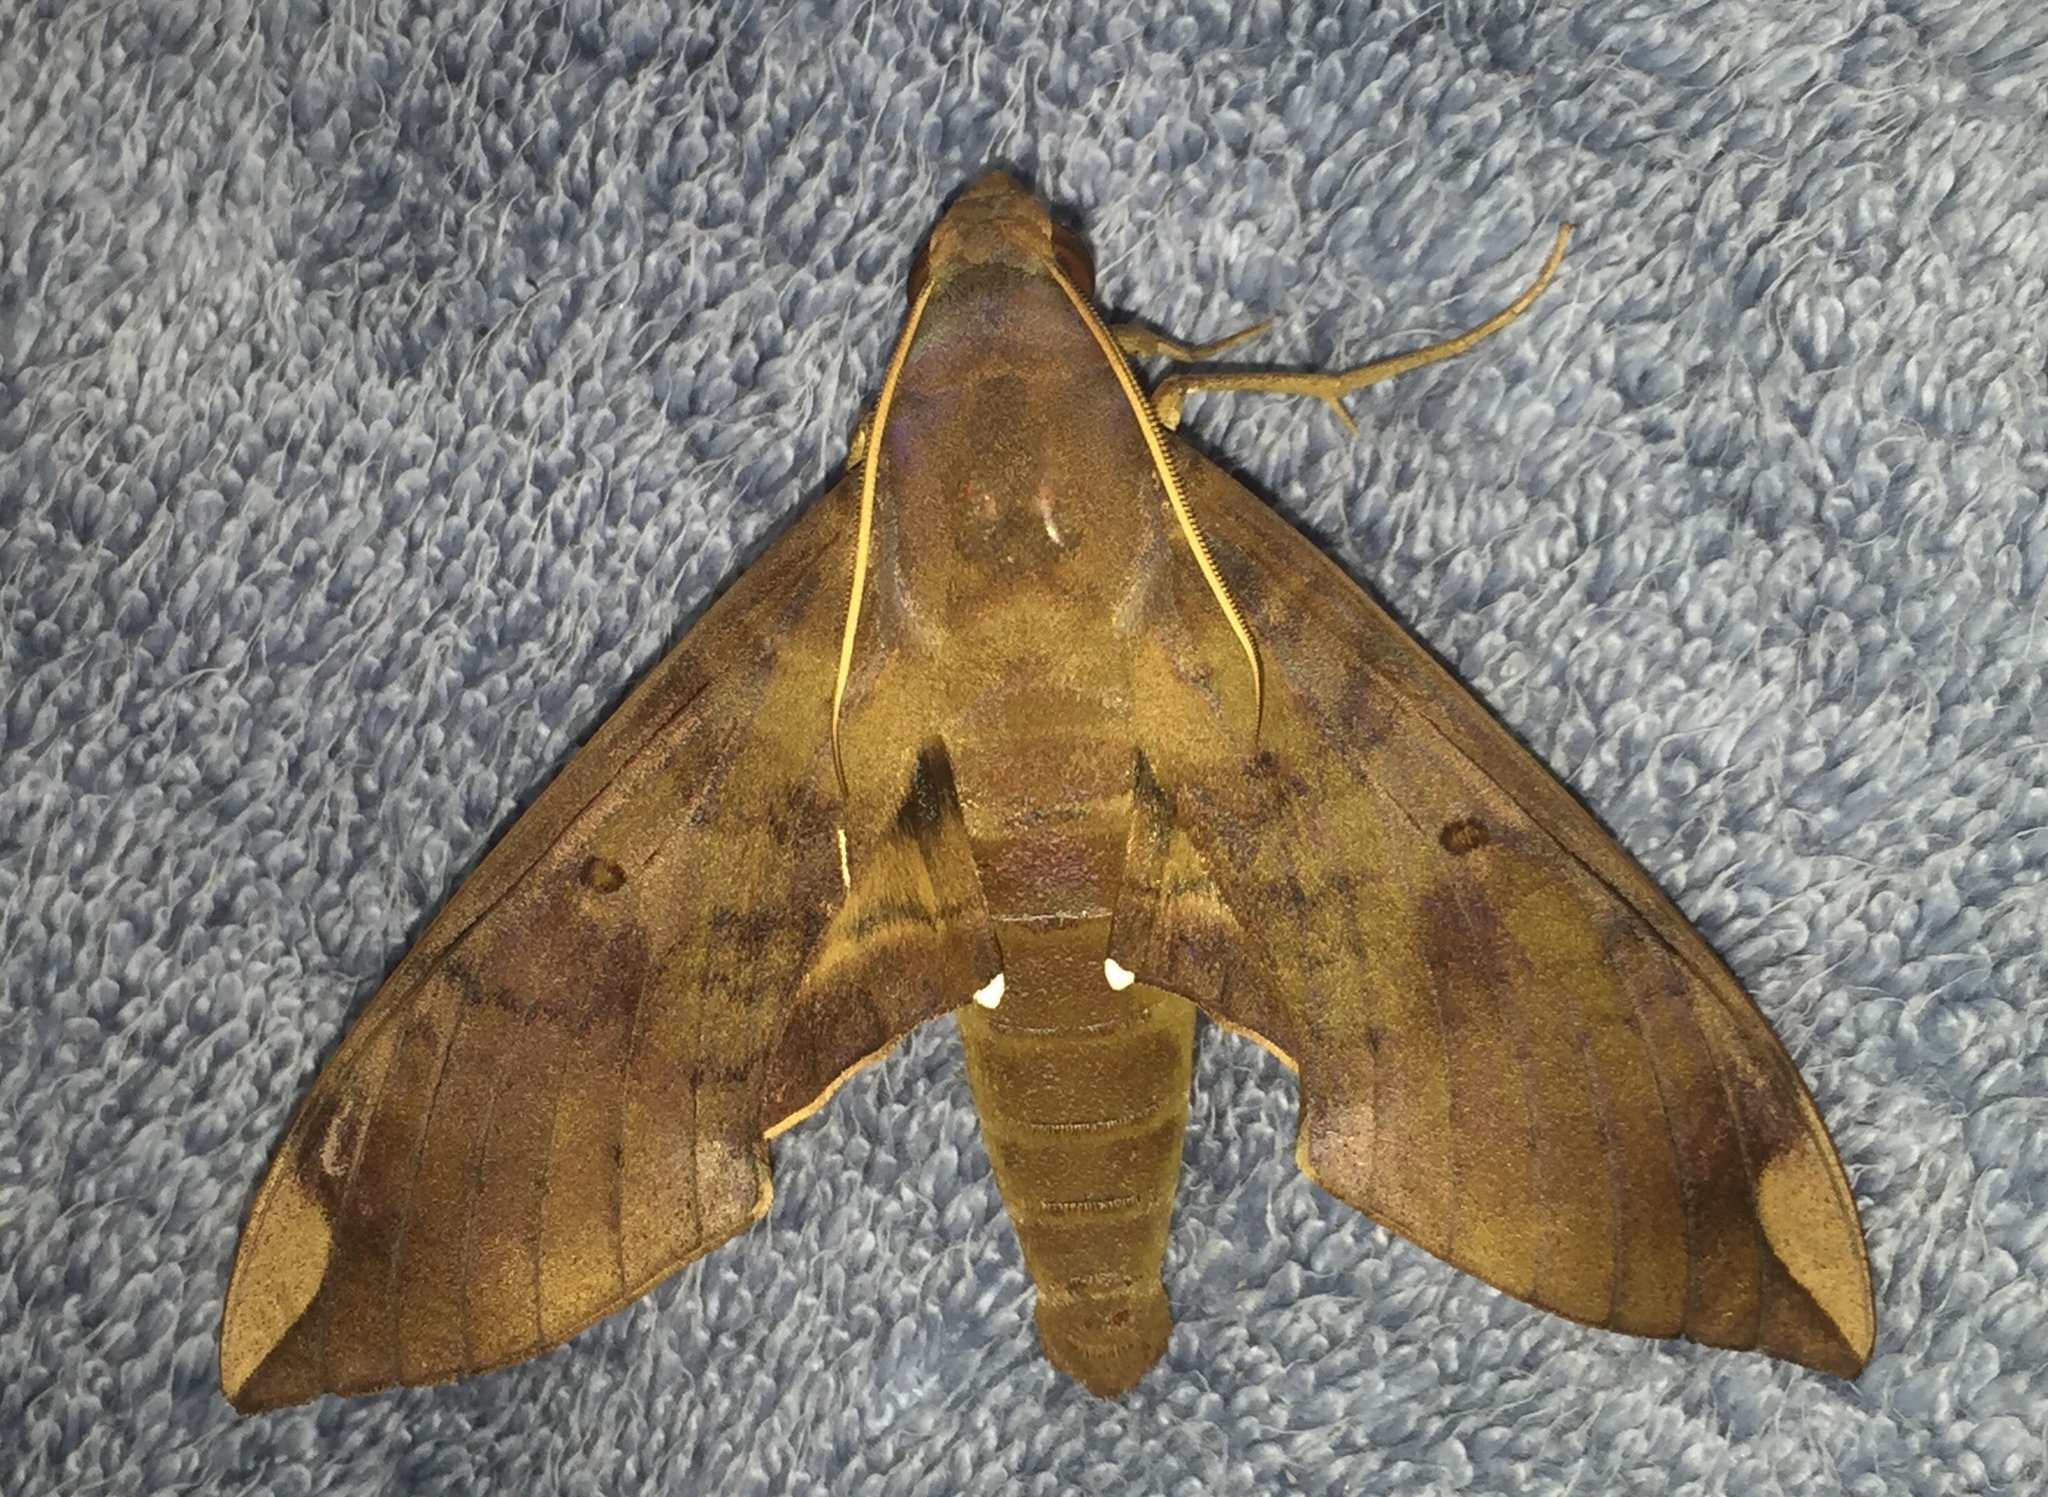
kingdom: Animalia
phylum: Arthropoda
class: Insecta
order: Lepidoptera
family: Sphingidae
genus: Pachylia
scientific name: Pachylia ficus
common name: Fig sphinx
